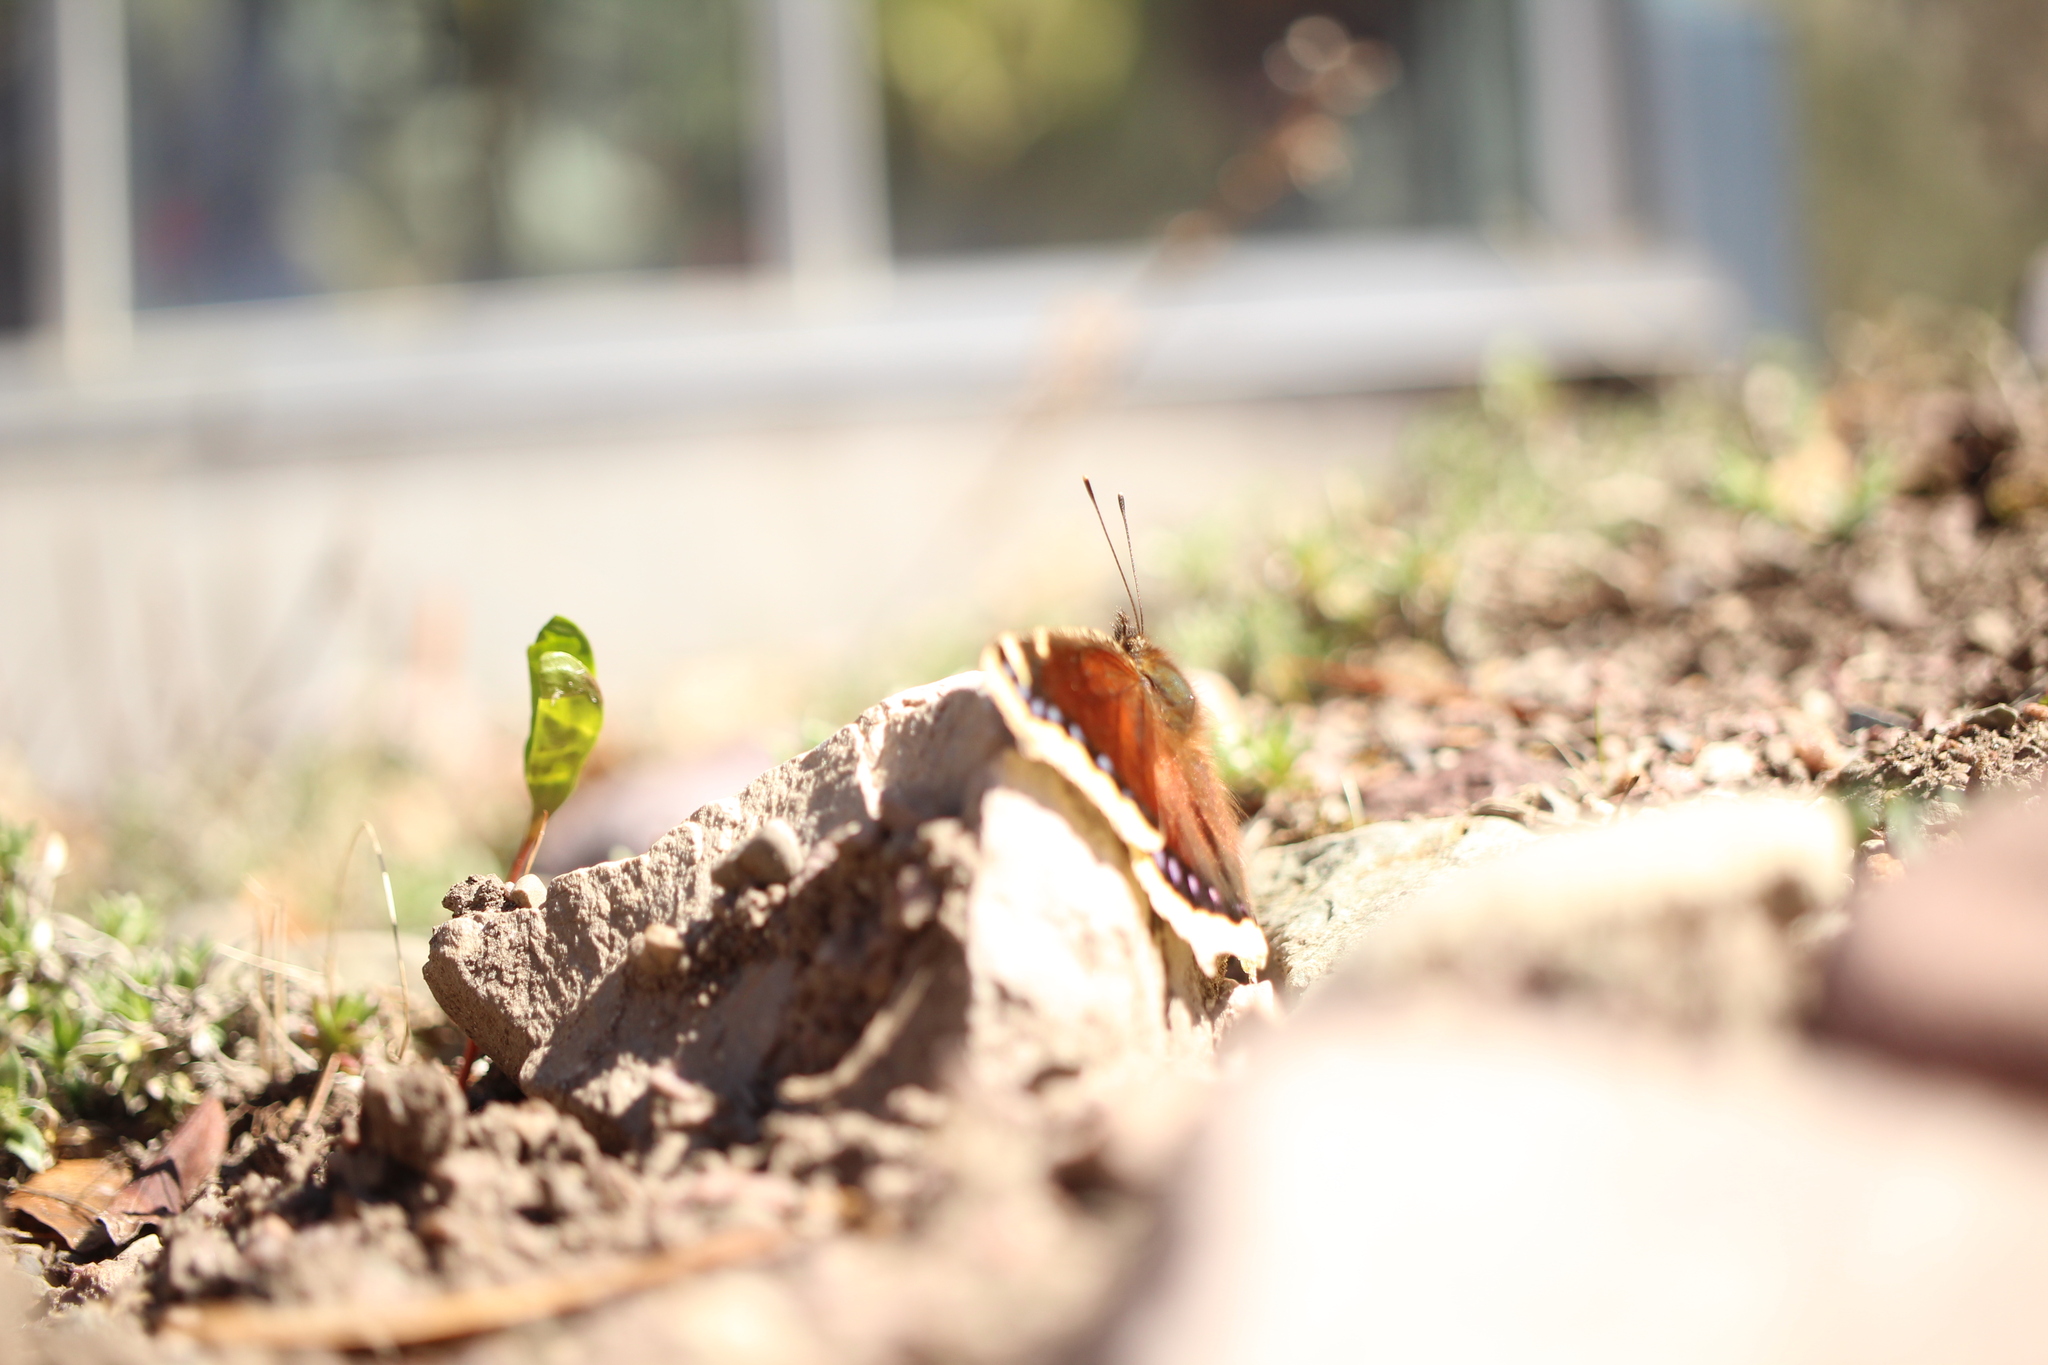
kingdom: Animalia
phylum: Arthropoda
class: Insecta
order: Lepidoptera
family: Nymphalidae
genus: Nymphalis
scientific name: Nymphalis antiopa
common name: Camberwell beauty
